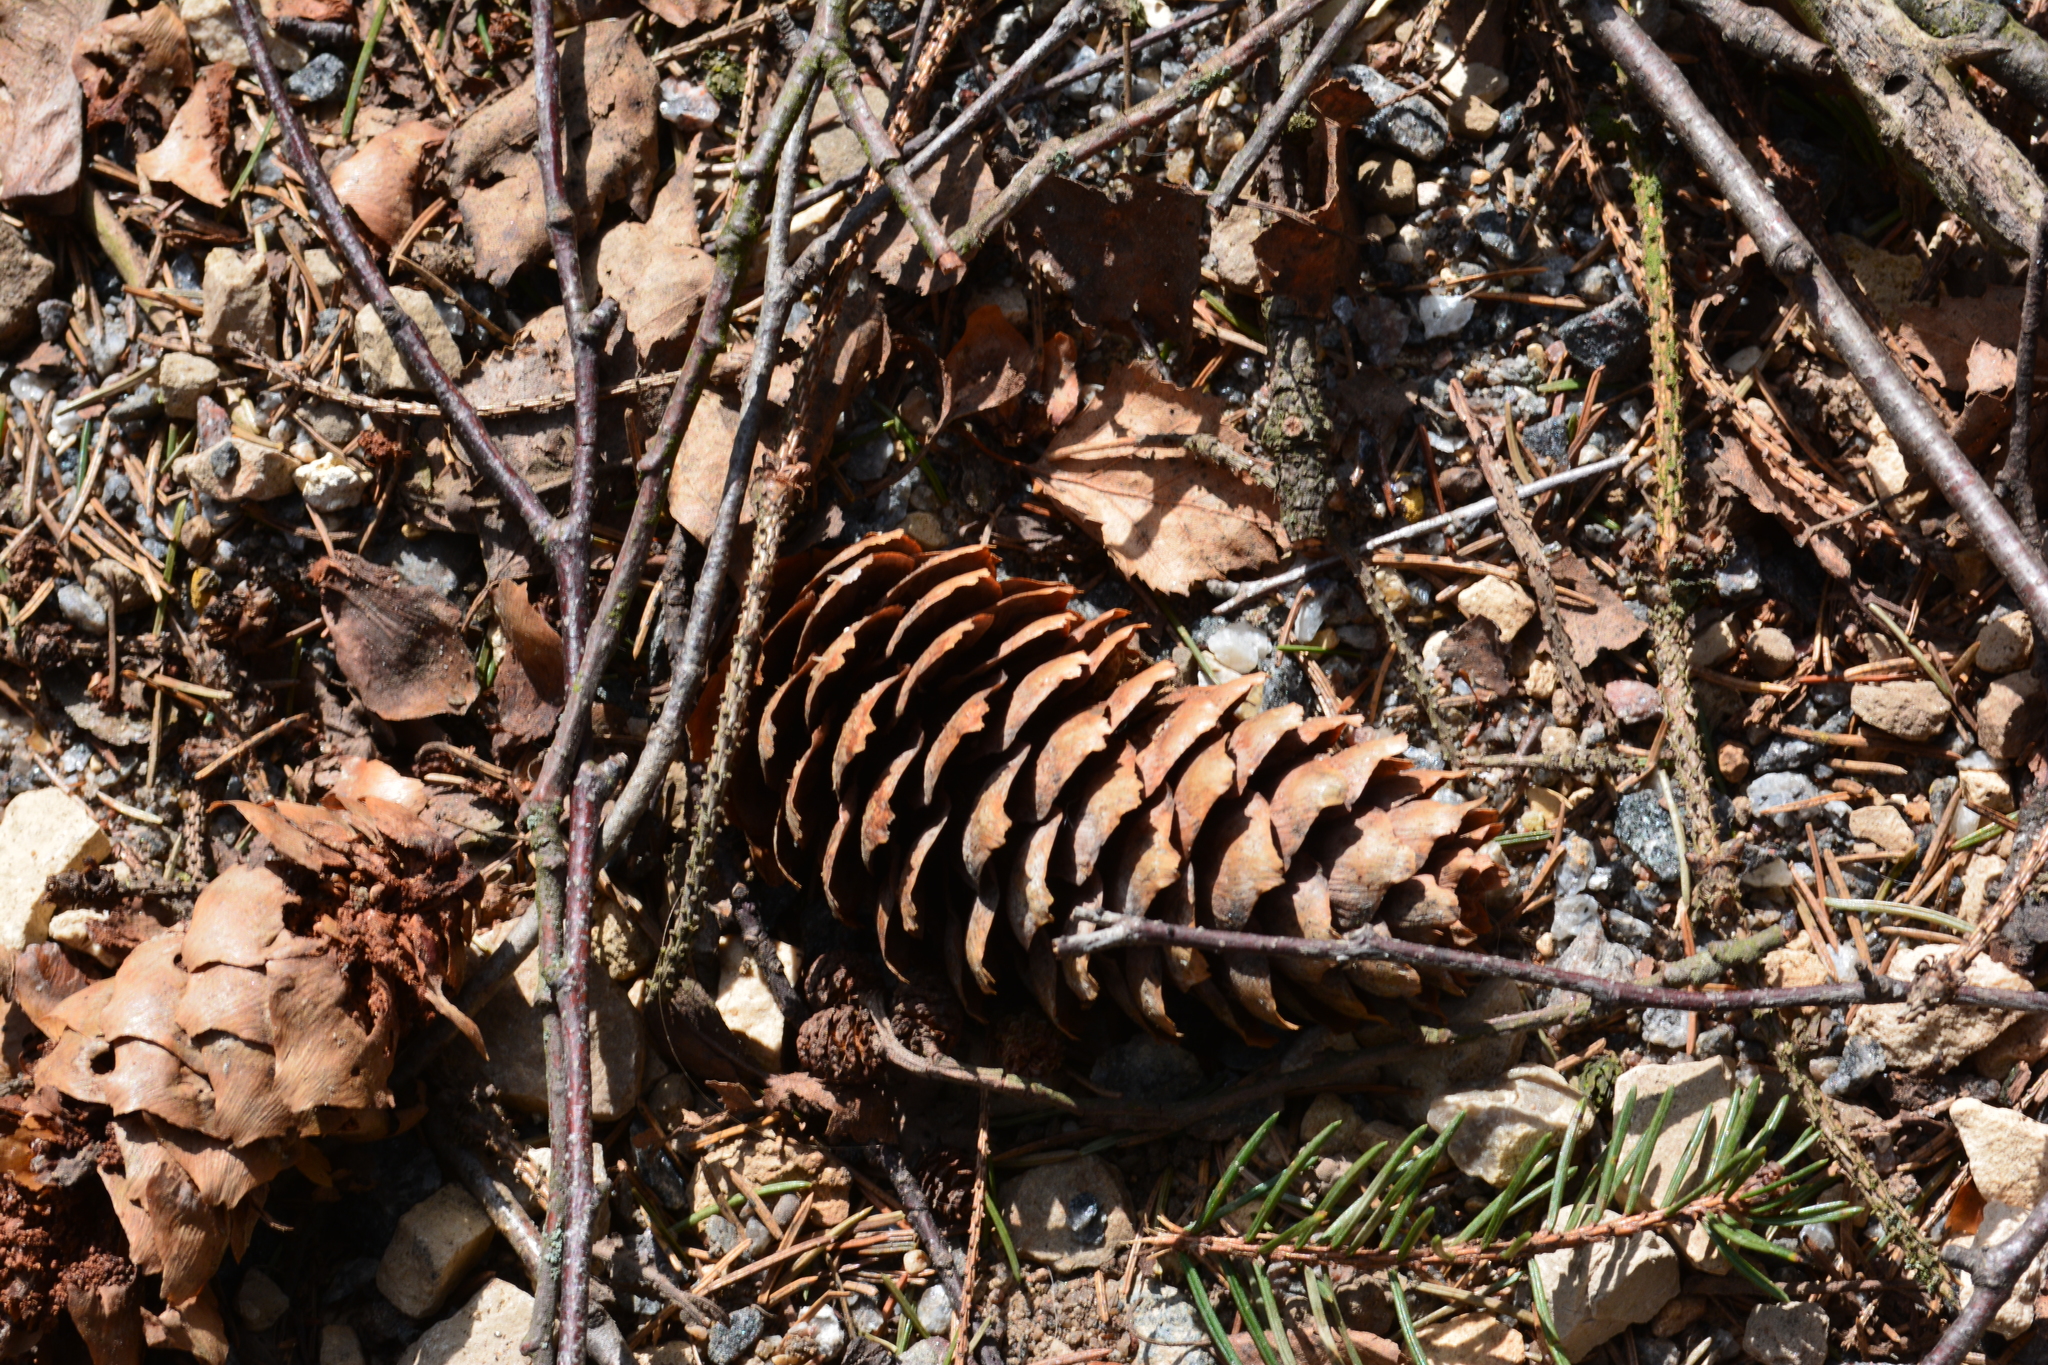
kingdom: Plantae
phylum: Tracheophyta
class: Pinopsida
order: Pinales
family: Pinaceae
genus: Picea
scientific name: Picea abies
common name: Norway spruce
